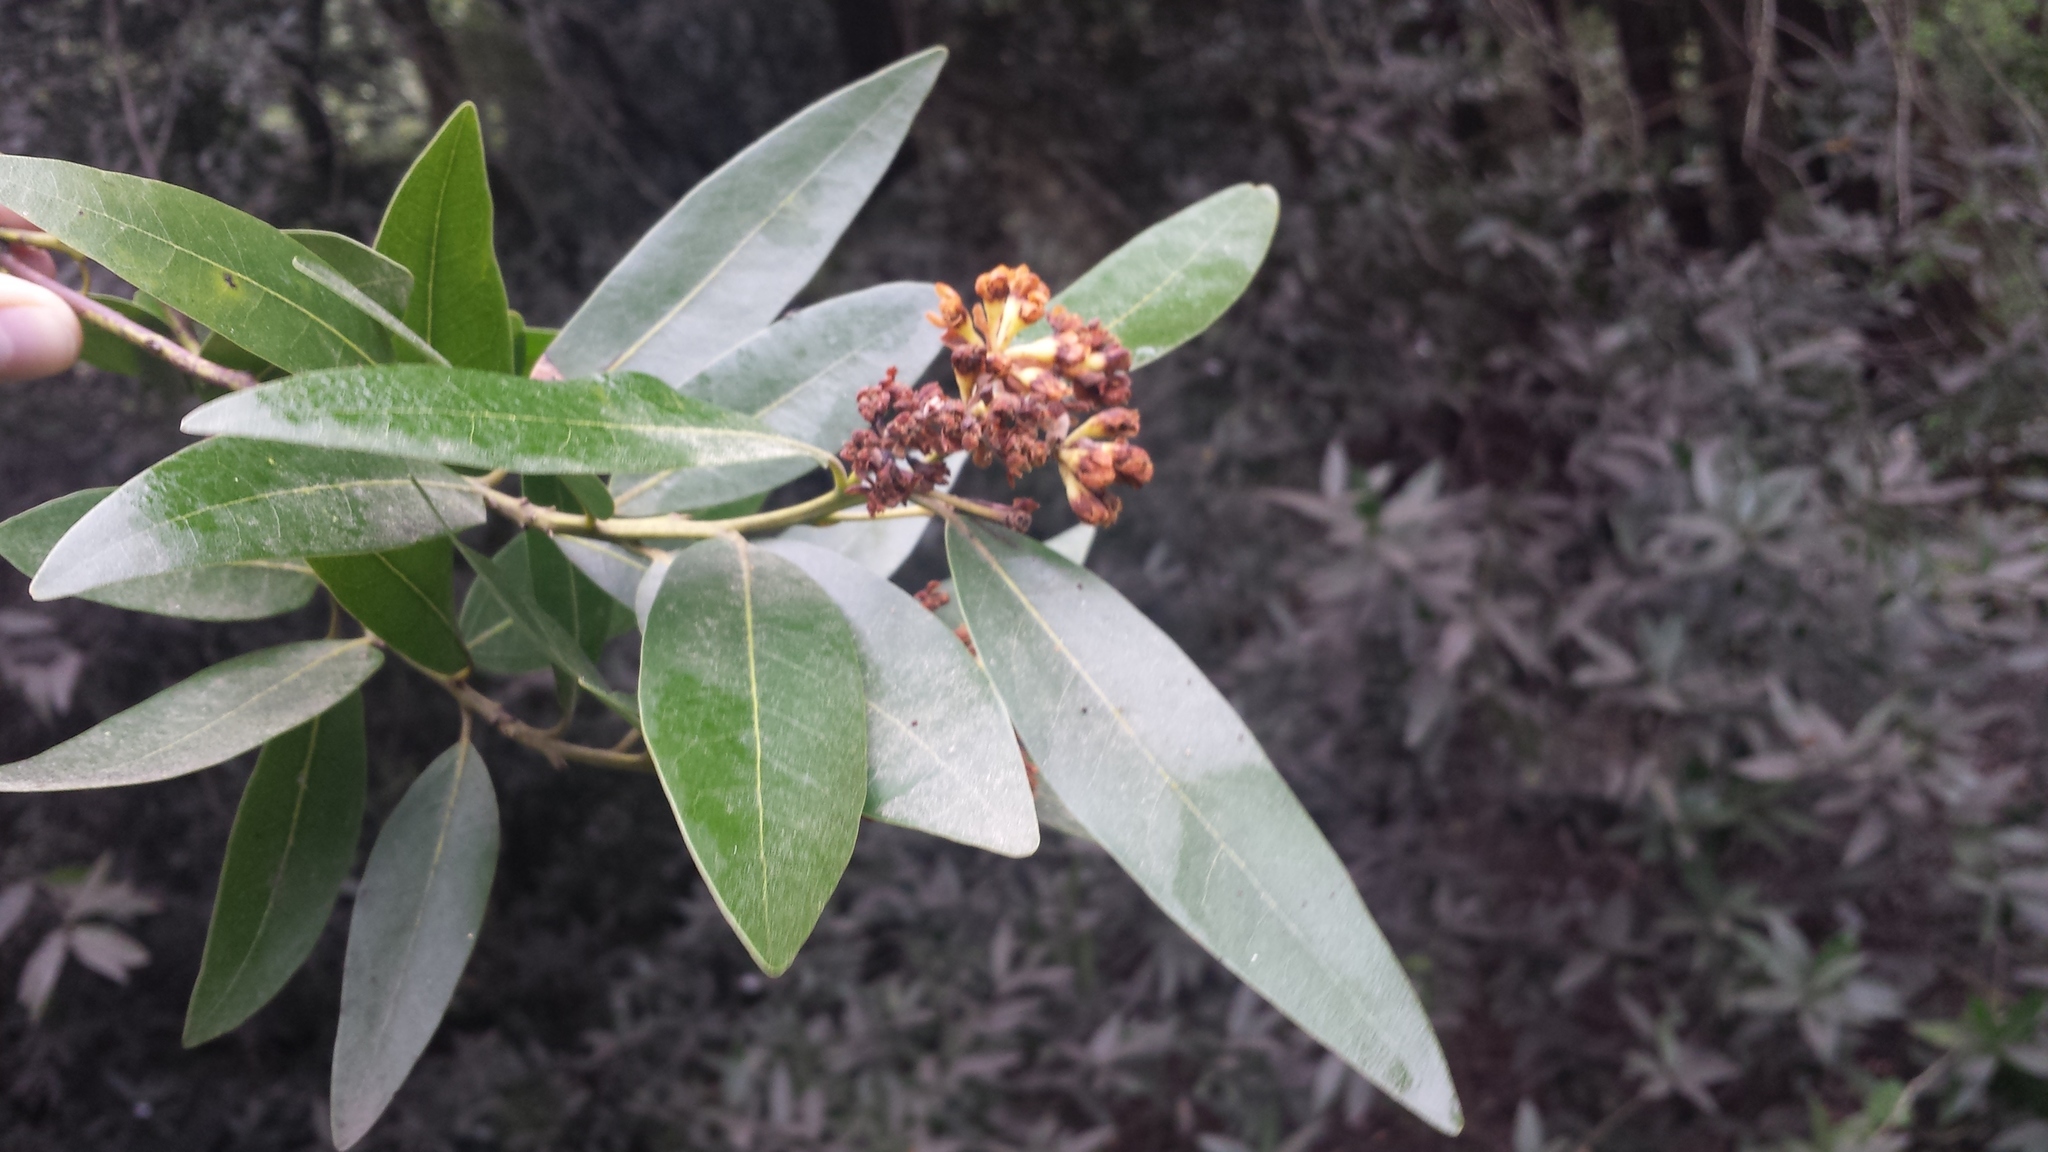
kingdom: Plantae
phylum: Tracheophyta
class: Magnoliopsida
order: Laurales
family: Lauraceae
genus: Umbellularia
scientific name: Umbellularia californica
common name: California bay
